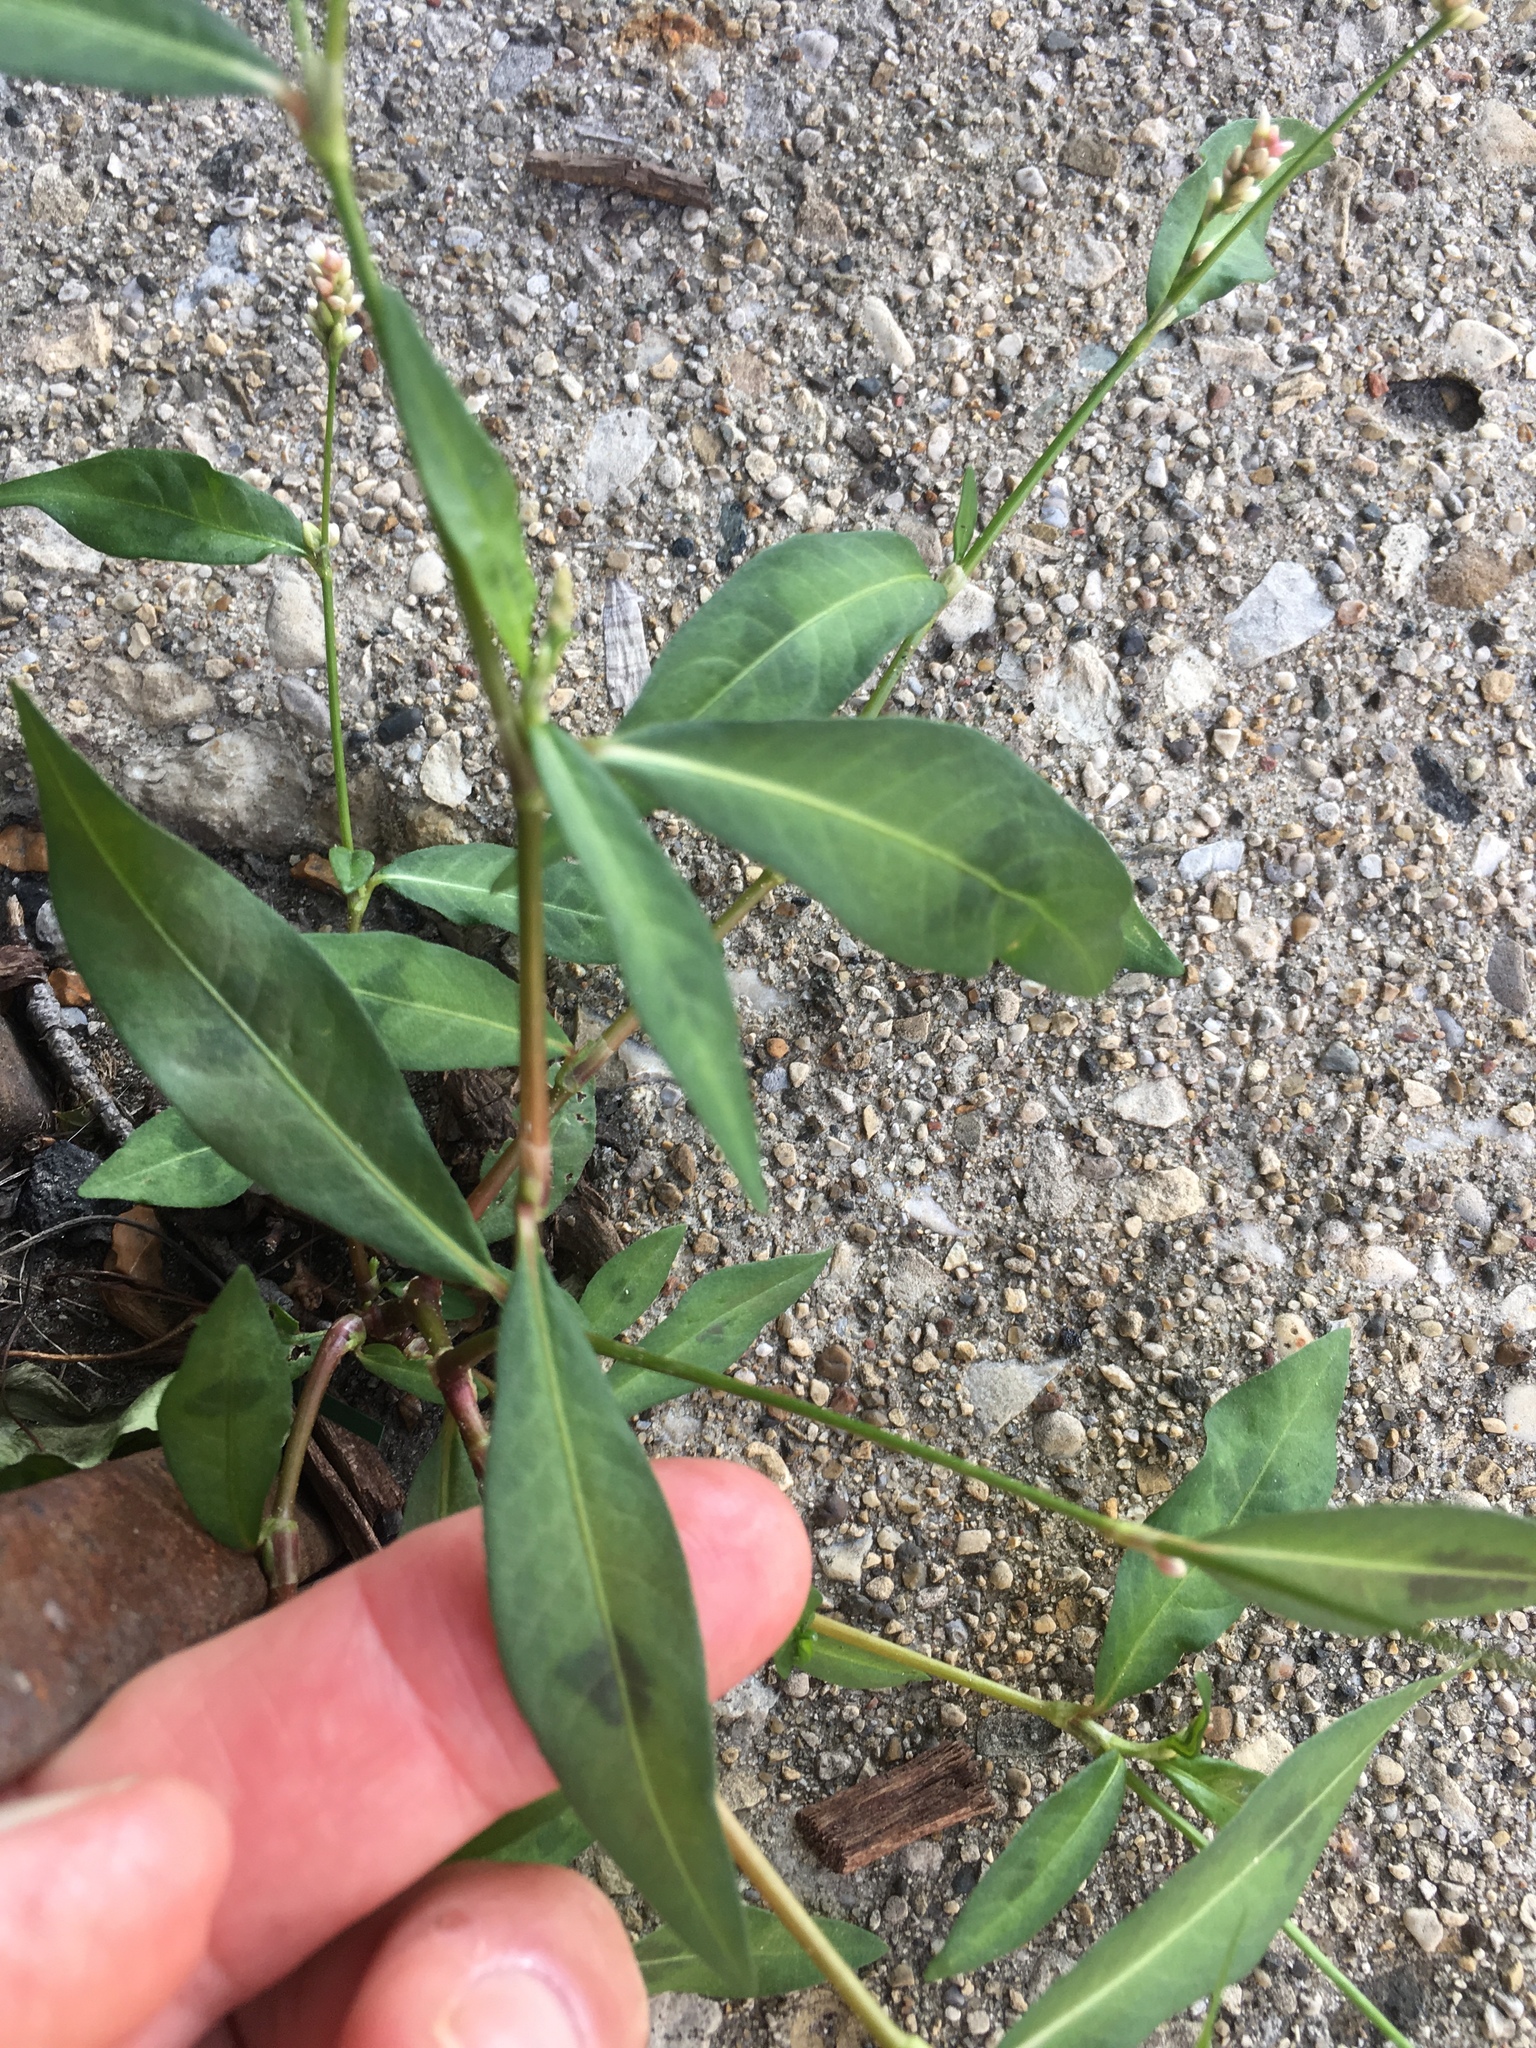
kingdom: Plantae
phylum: Tracheophyta
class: Magnoliopsida
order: Caryophyllales
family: Polygonaceae
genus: Persicaria
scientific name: Persicaria maculosa
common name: Redshank
